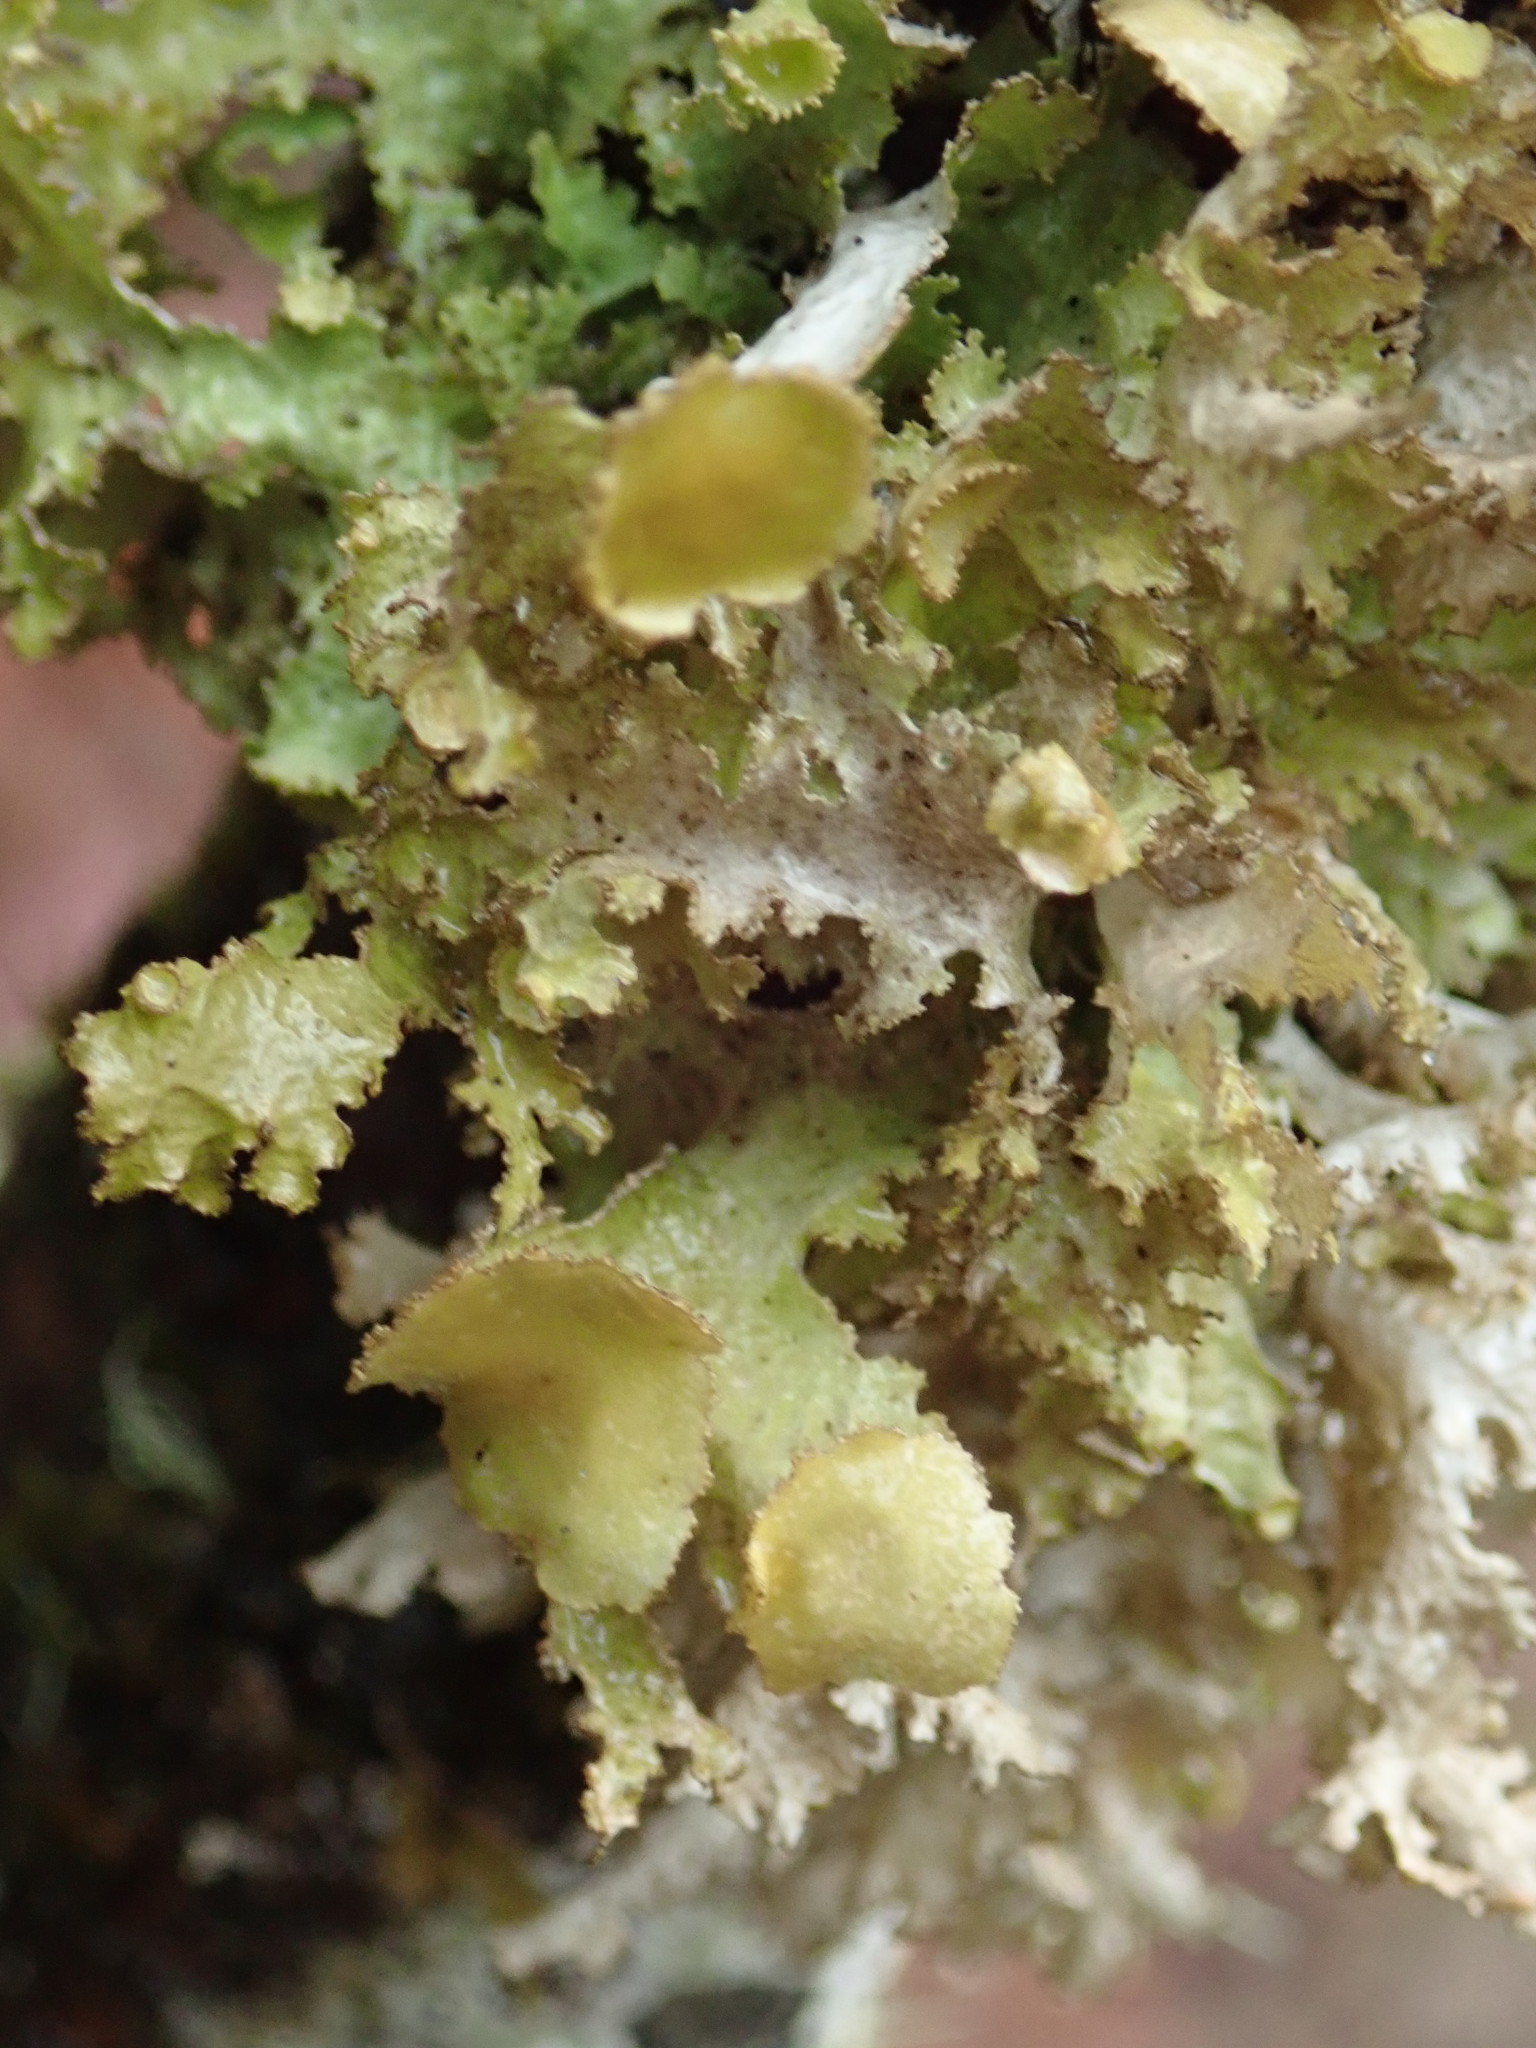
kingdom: Fungi
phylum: Ascomycota
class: Lecanoromycetes
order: Lecanorales
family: Parmeliaceae
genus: Nephromopsis
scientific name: Nephromopsis orbata
